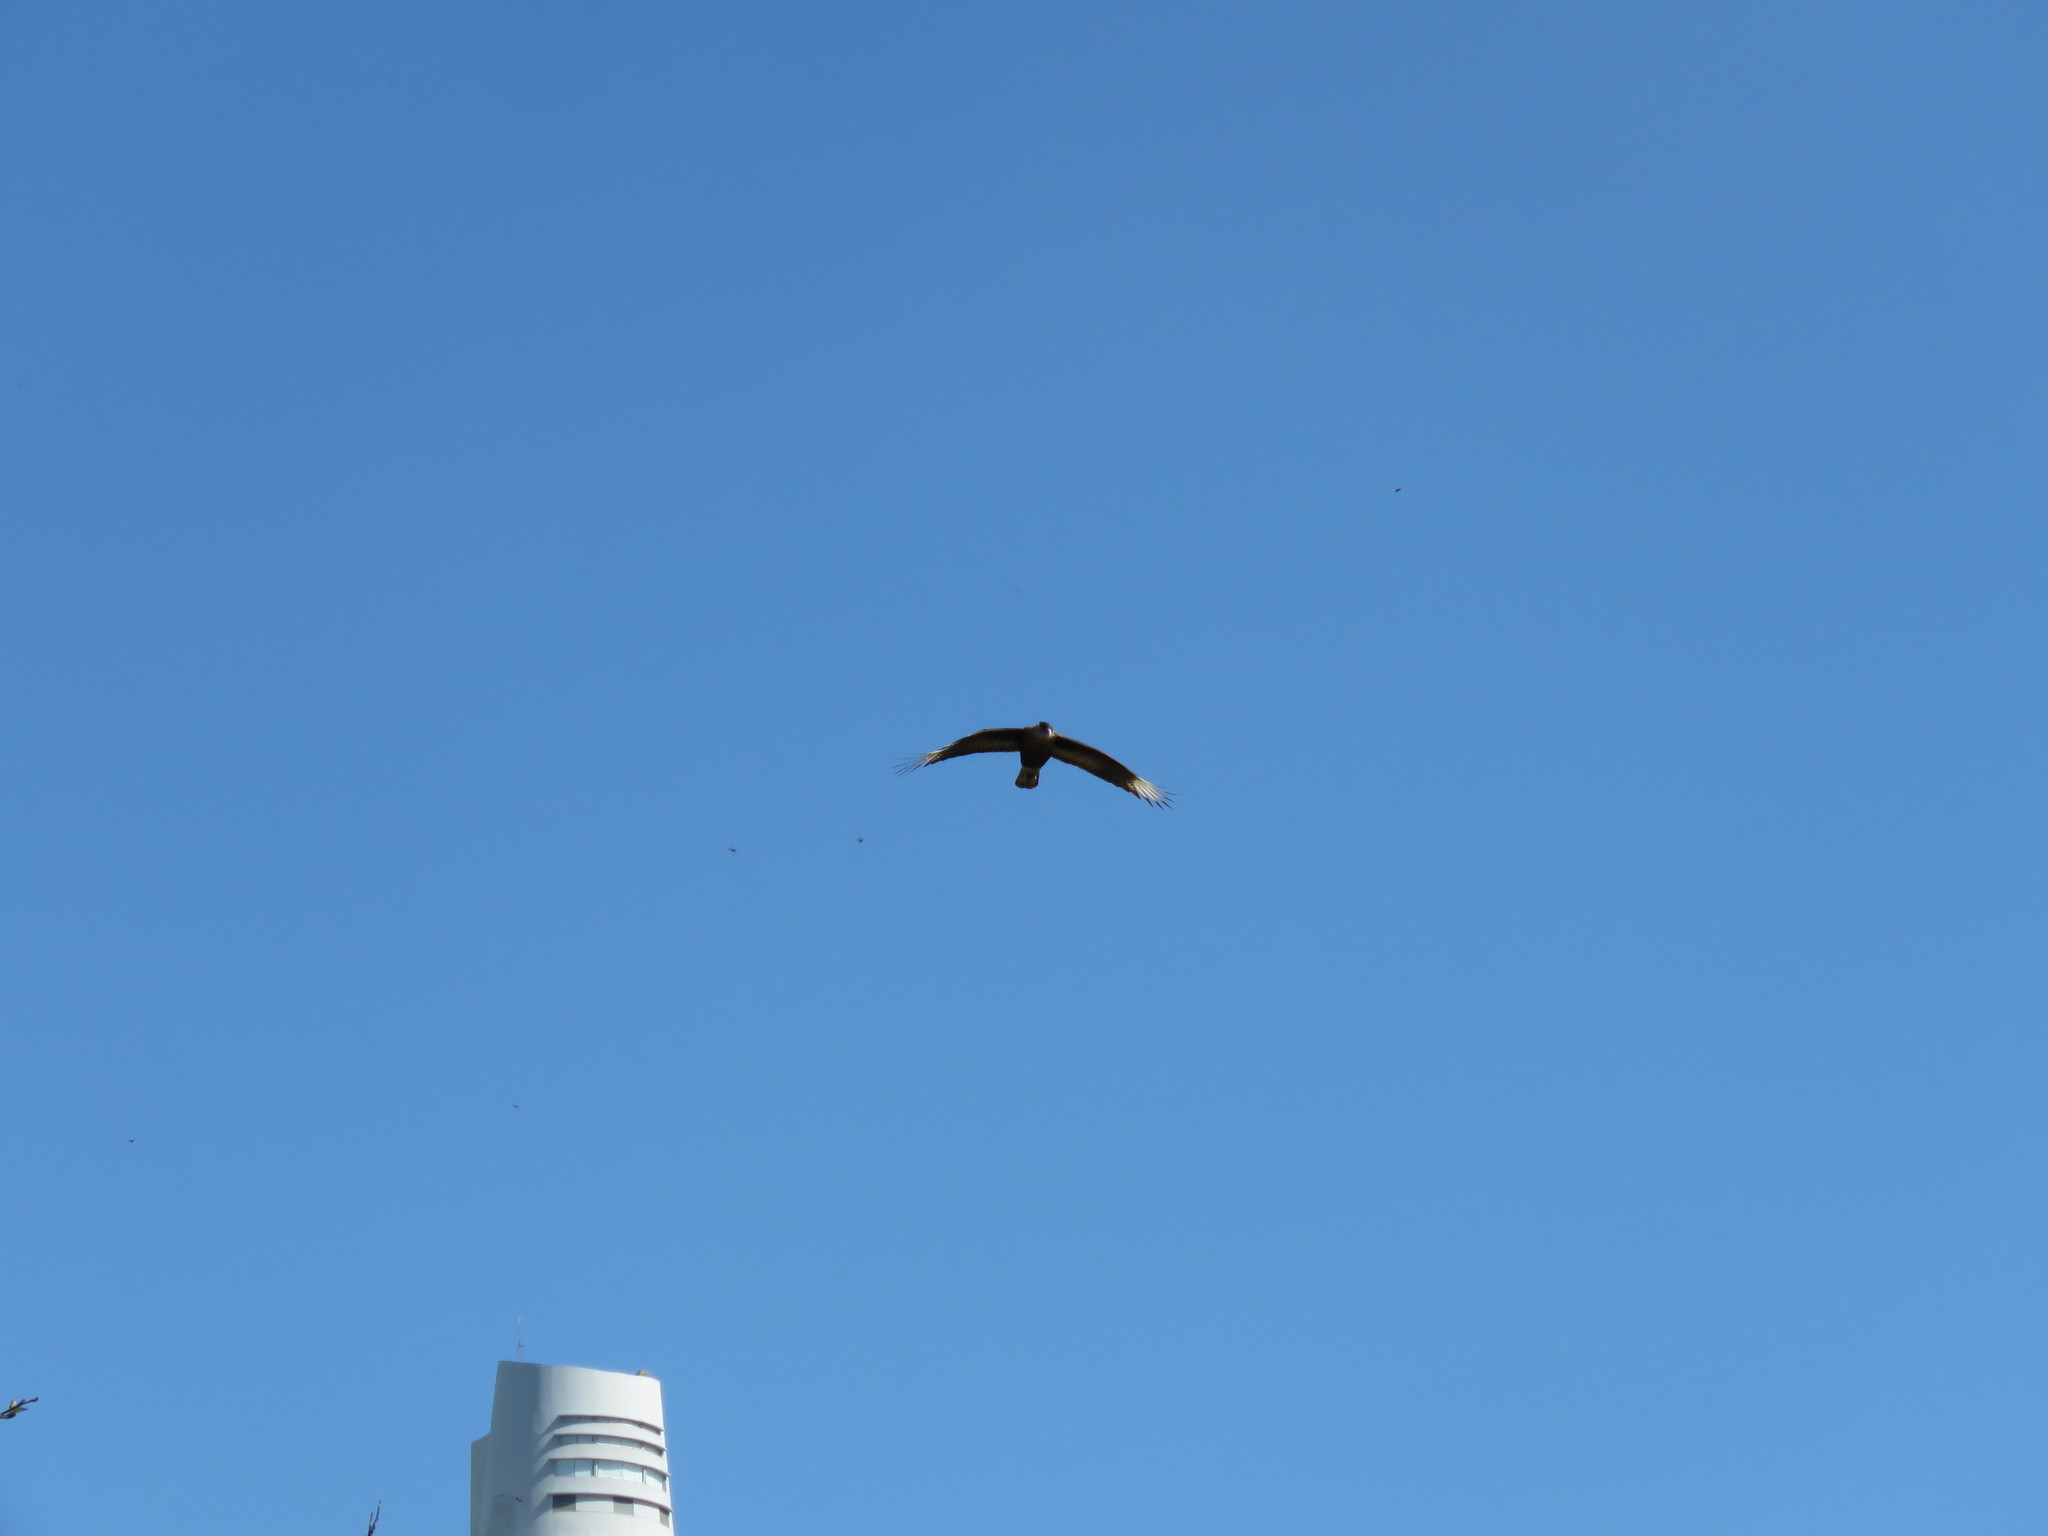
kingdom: Animalia
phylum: Chordata
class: Aves
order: Falconiformes
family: Falconidae
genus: Caracara
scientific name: Caracara plancus
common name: Southern caracara
